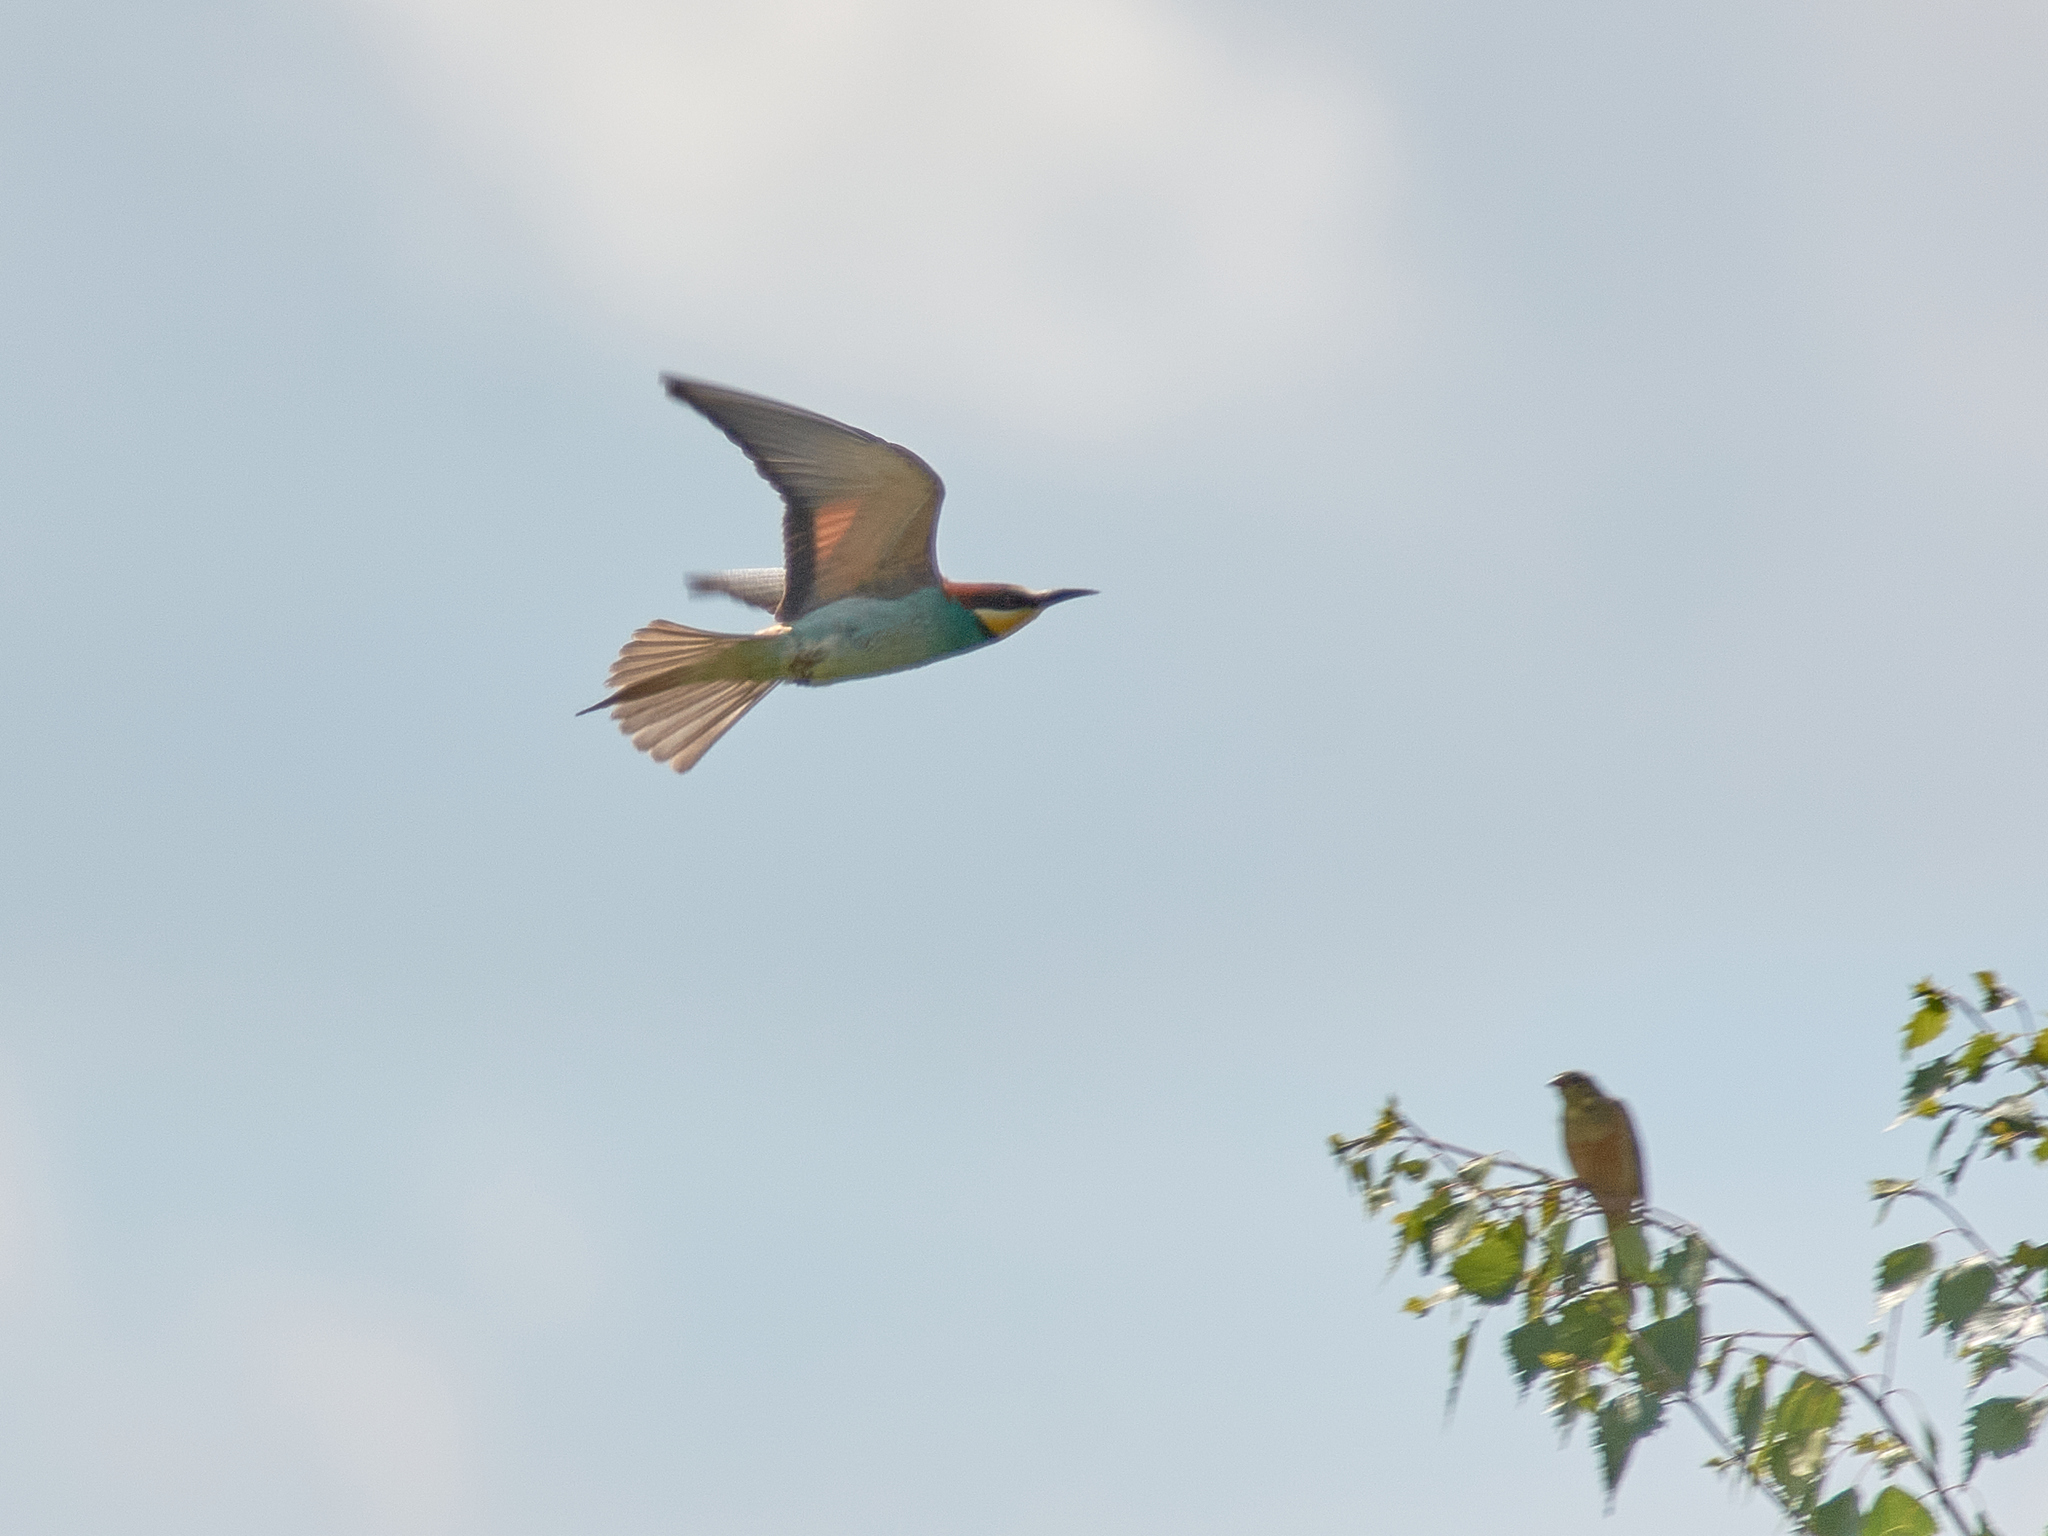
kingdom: Animalia
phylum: Chordata
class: Aves
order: Coraciiformes
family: Meropidae
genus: Merops
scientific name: Merops apiaster
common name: European bee-eater
